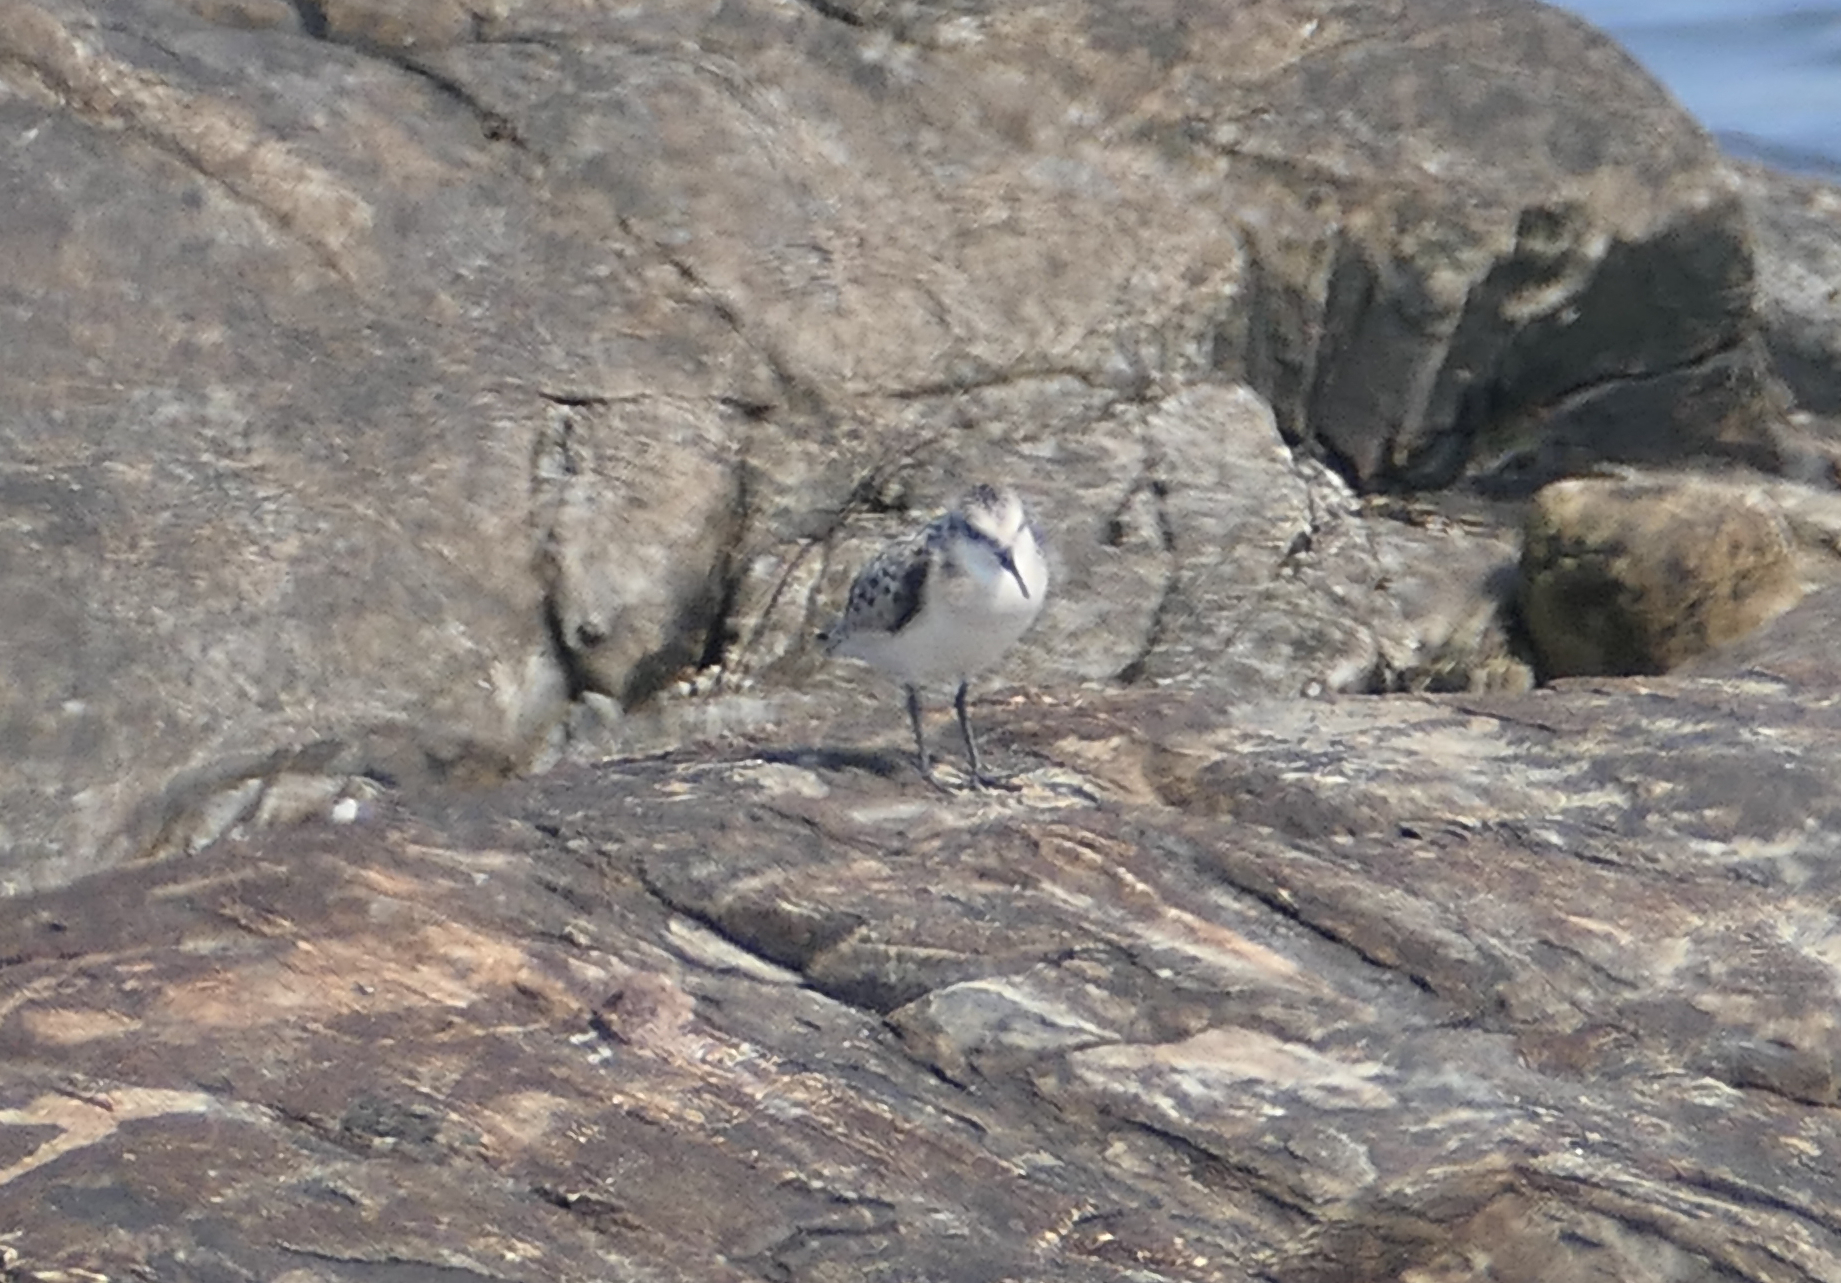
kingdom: Animalia
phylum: Chordata
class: Aves
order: Charadriiformes
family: Scolopacidae
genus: Calidris
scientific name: Calidris alba
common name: Sanderling
